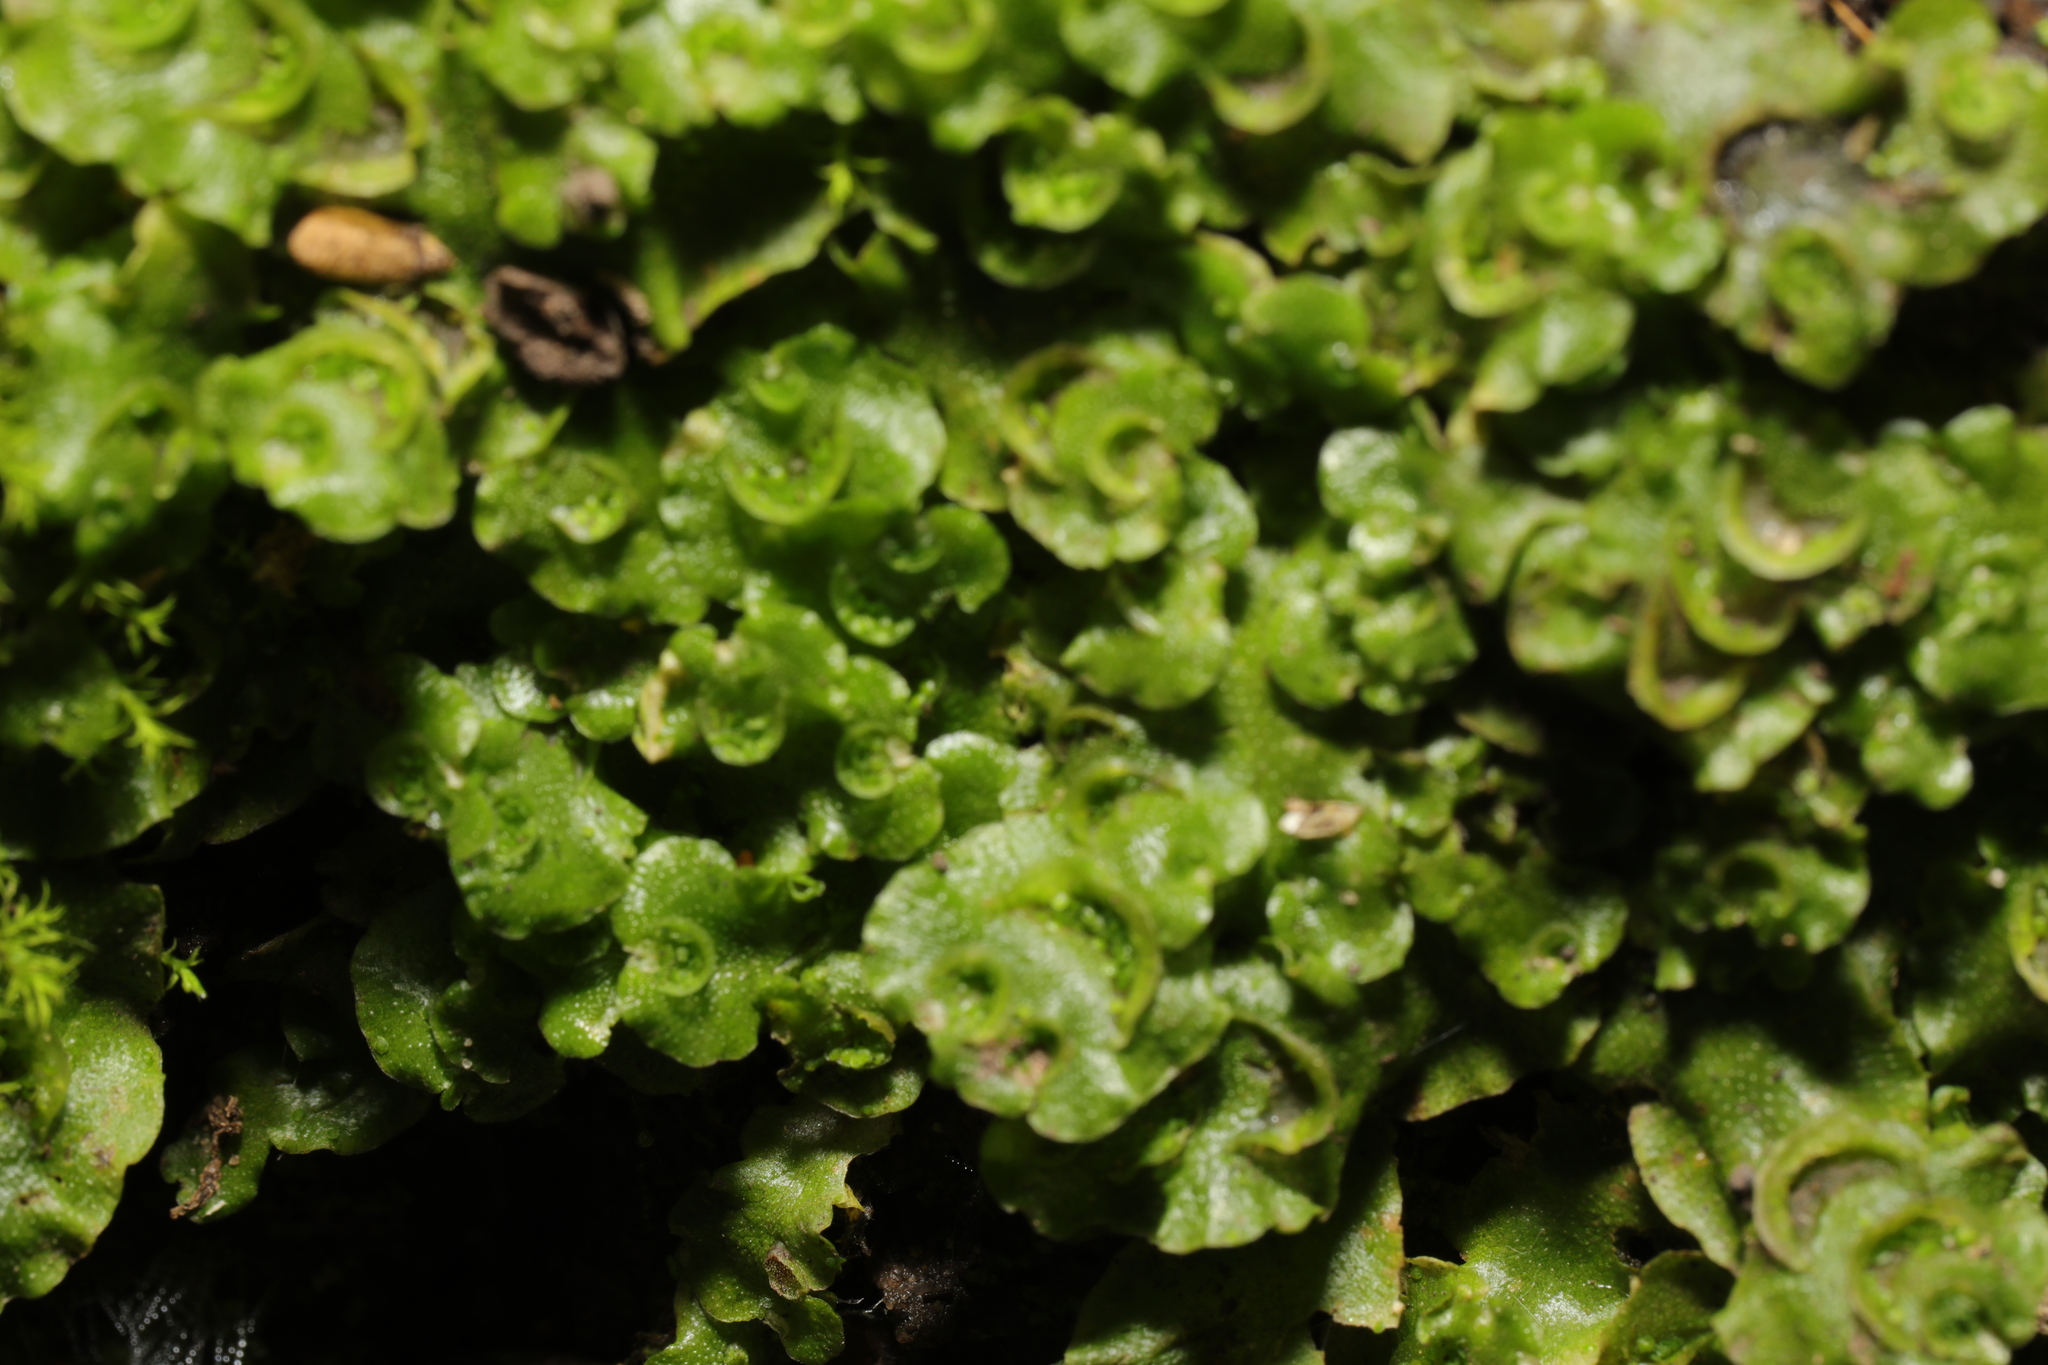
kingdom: Plantae
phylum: Marchantiophyta
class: Marchantiopsida
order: Lunulariales
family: Lunulariaceae
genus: Lunularia
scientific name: Lunularia cruciata
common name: Crescent-cup liverwort
